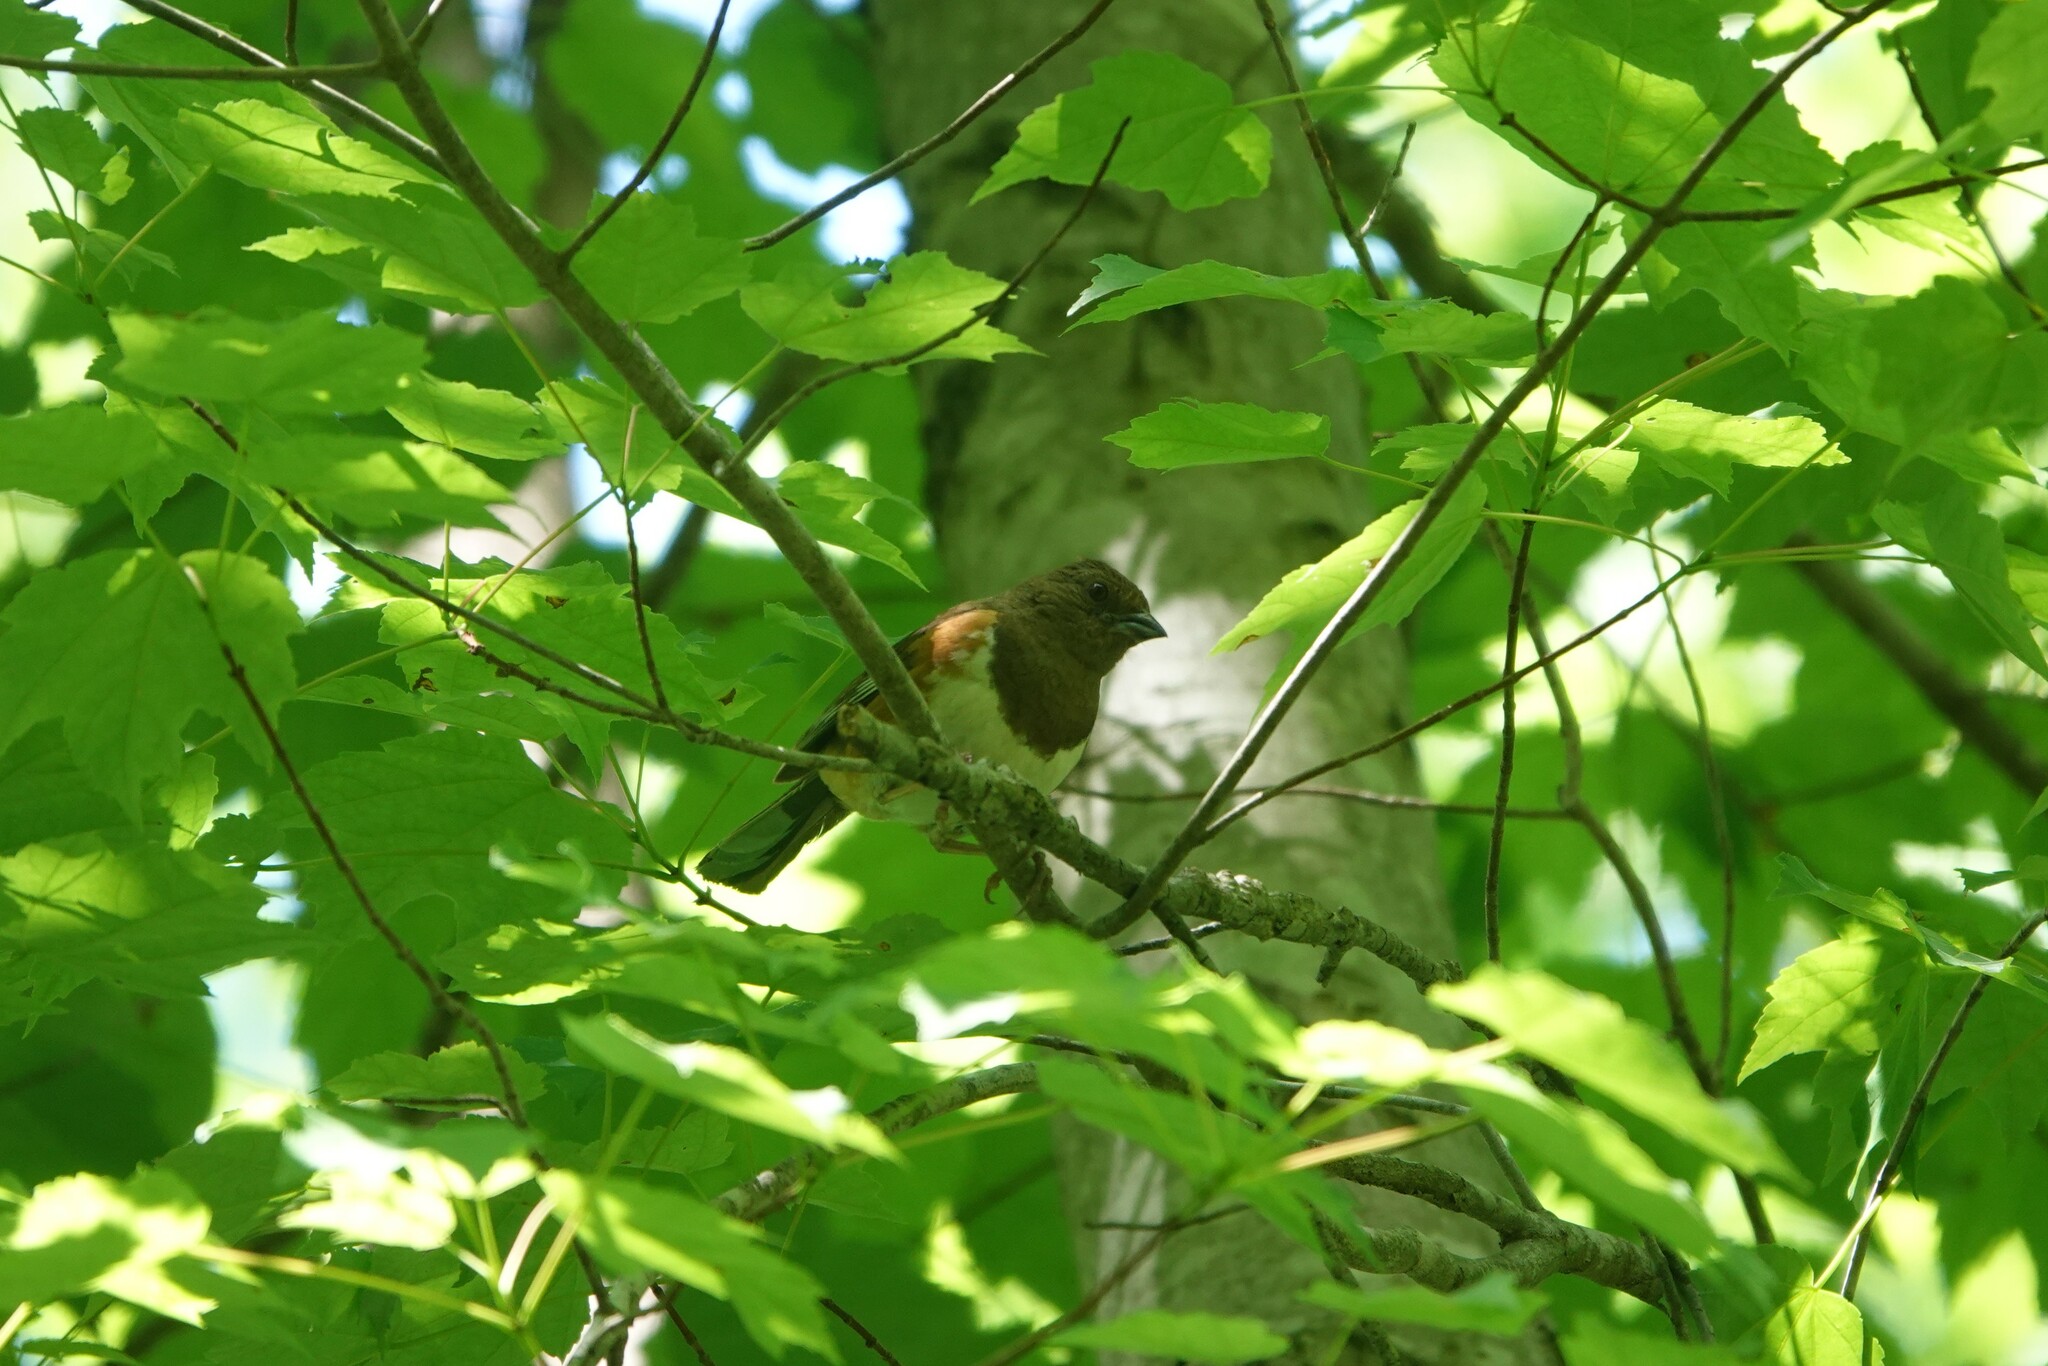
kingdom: Animalia
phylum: Chordata
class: Aves
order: Passeriformes
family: Passerellidae
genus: Pipilo
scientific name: Pipilo erythrophthalmus
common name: Eastern towhee
